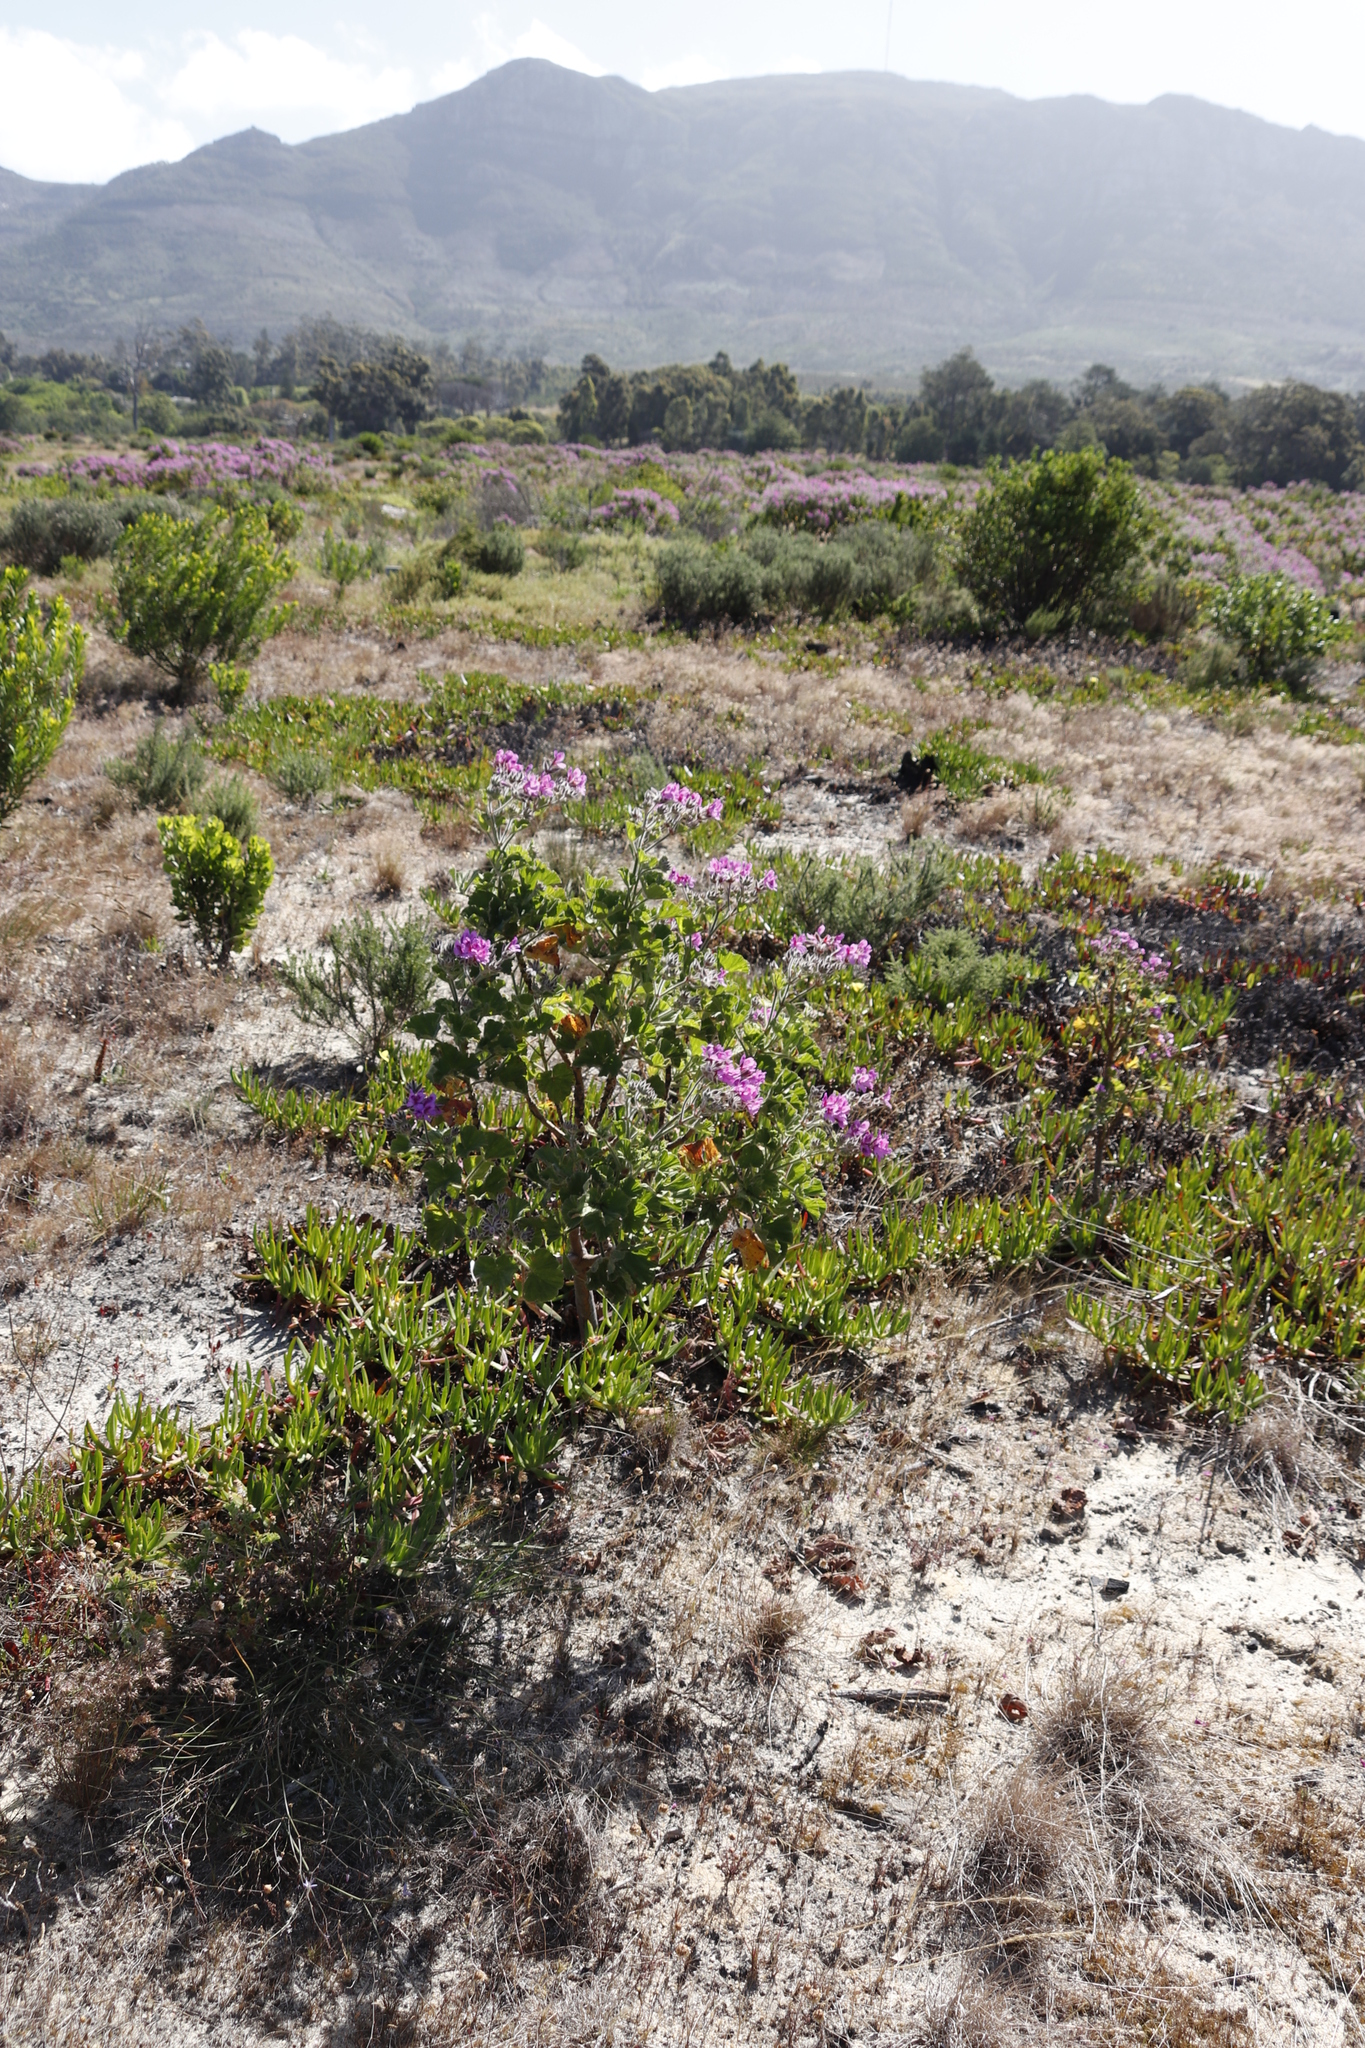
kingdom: Plantae
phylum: Tracheophyta
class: Magnoliopsida
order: Geraniales
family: Geraniaceae
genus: Pelargonium
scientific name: Pelargonium cucullatum
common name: Tree pelargonium
